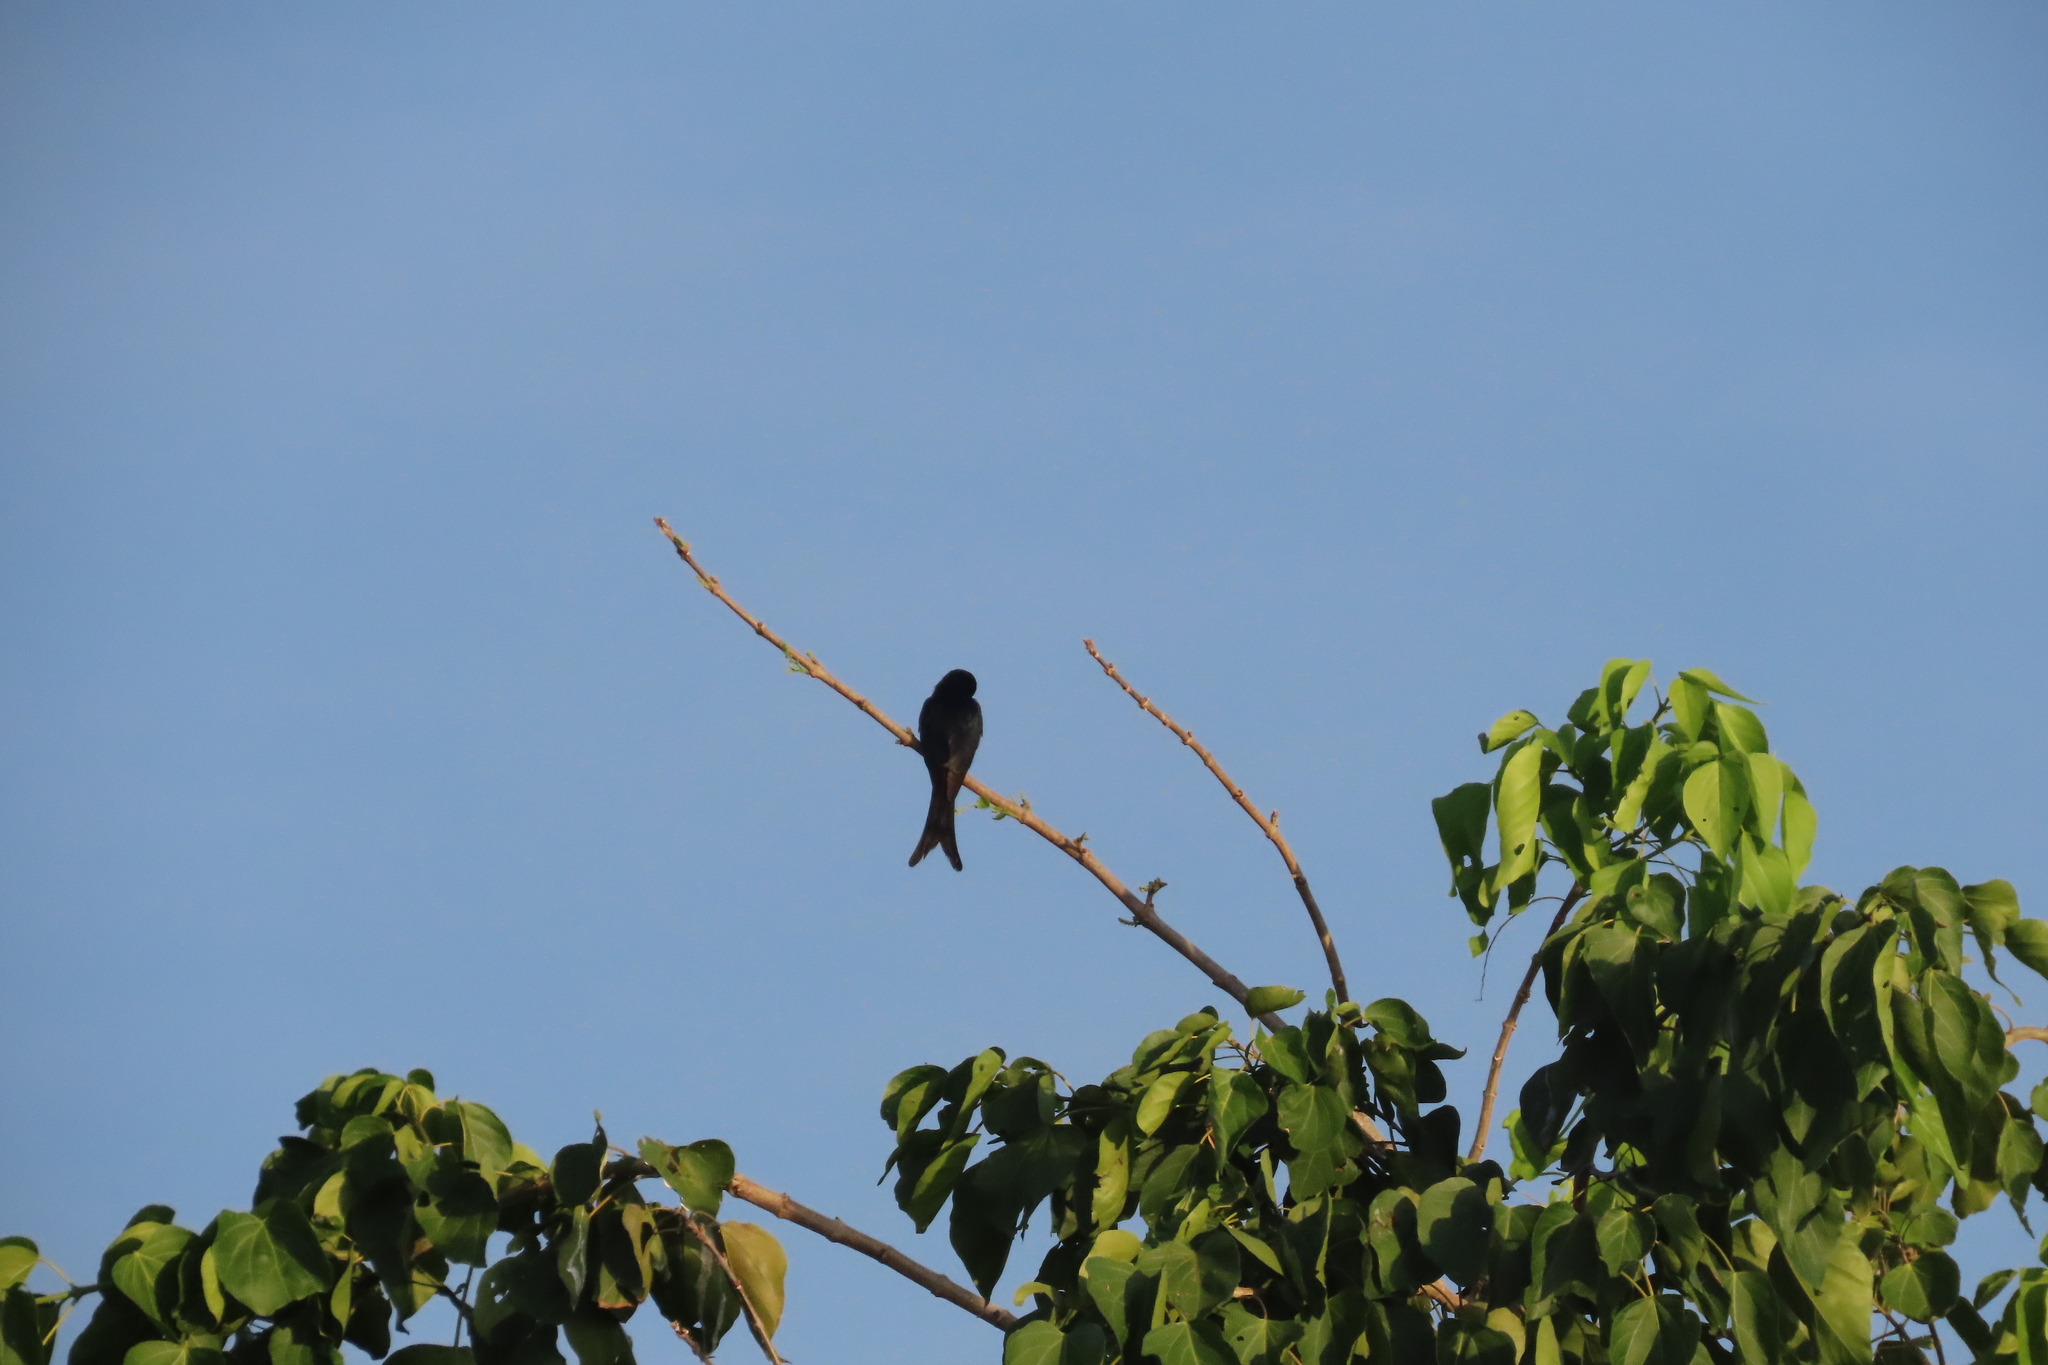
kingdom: Animalia
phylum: Chordata
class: Aves
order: Passeriformes
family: Dicruridae
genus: Dicrurus
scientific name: Dicrurus macrocercus
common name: Black drongo
